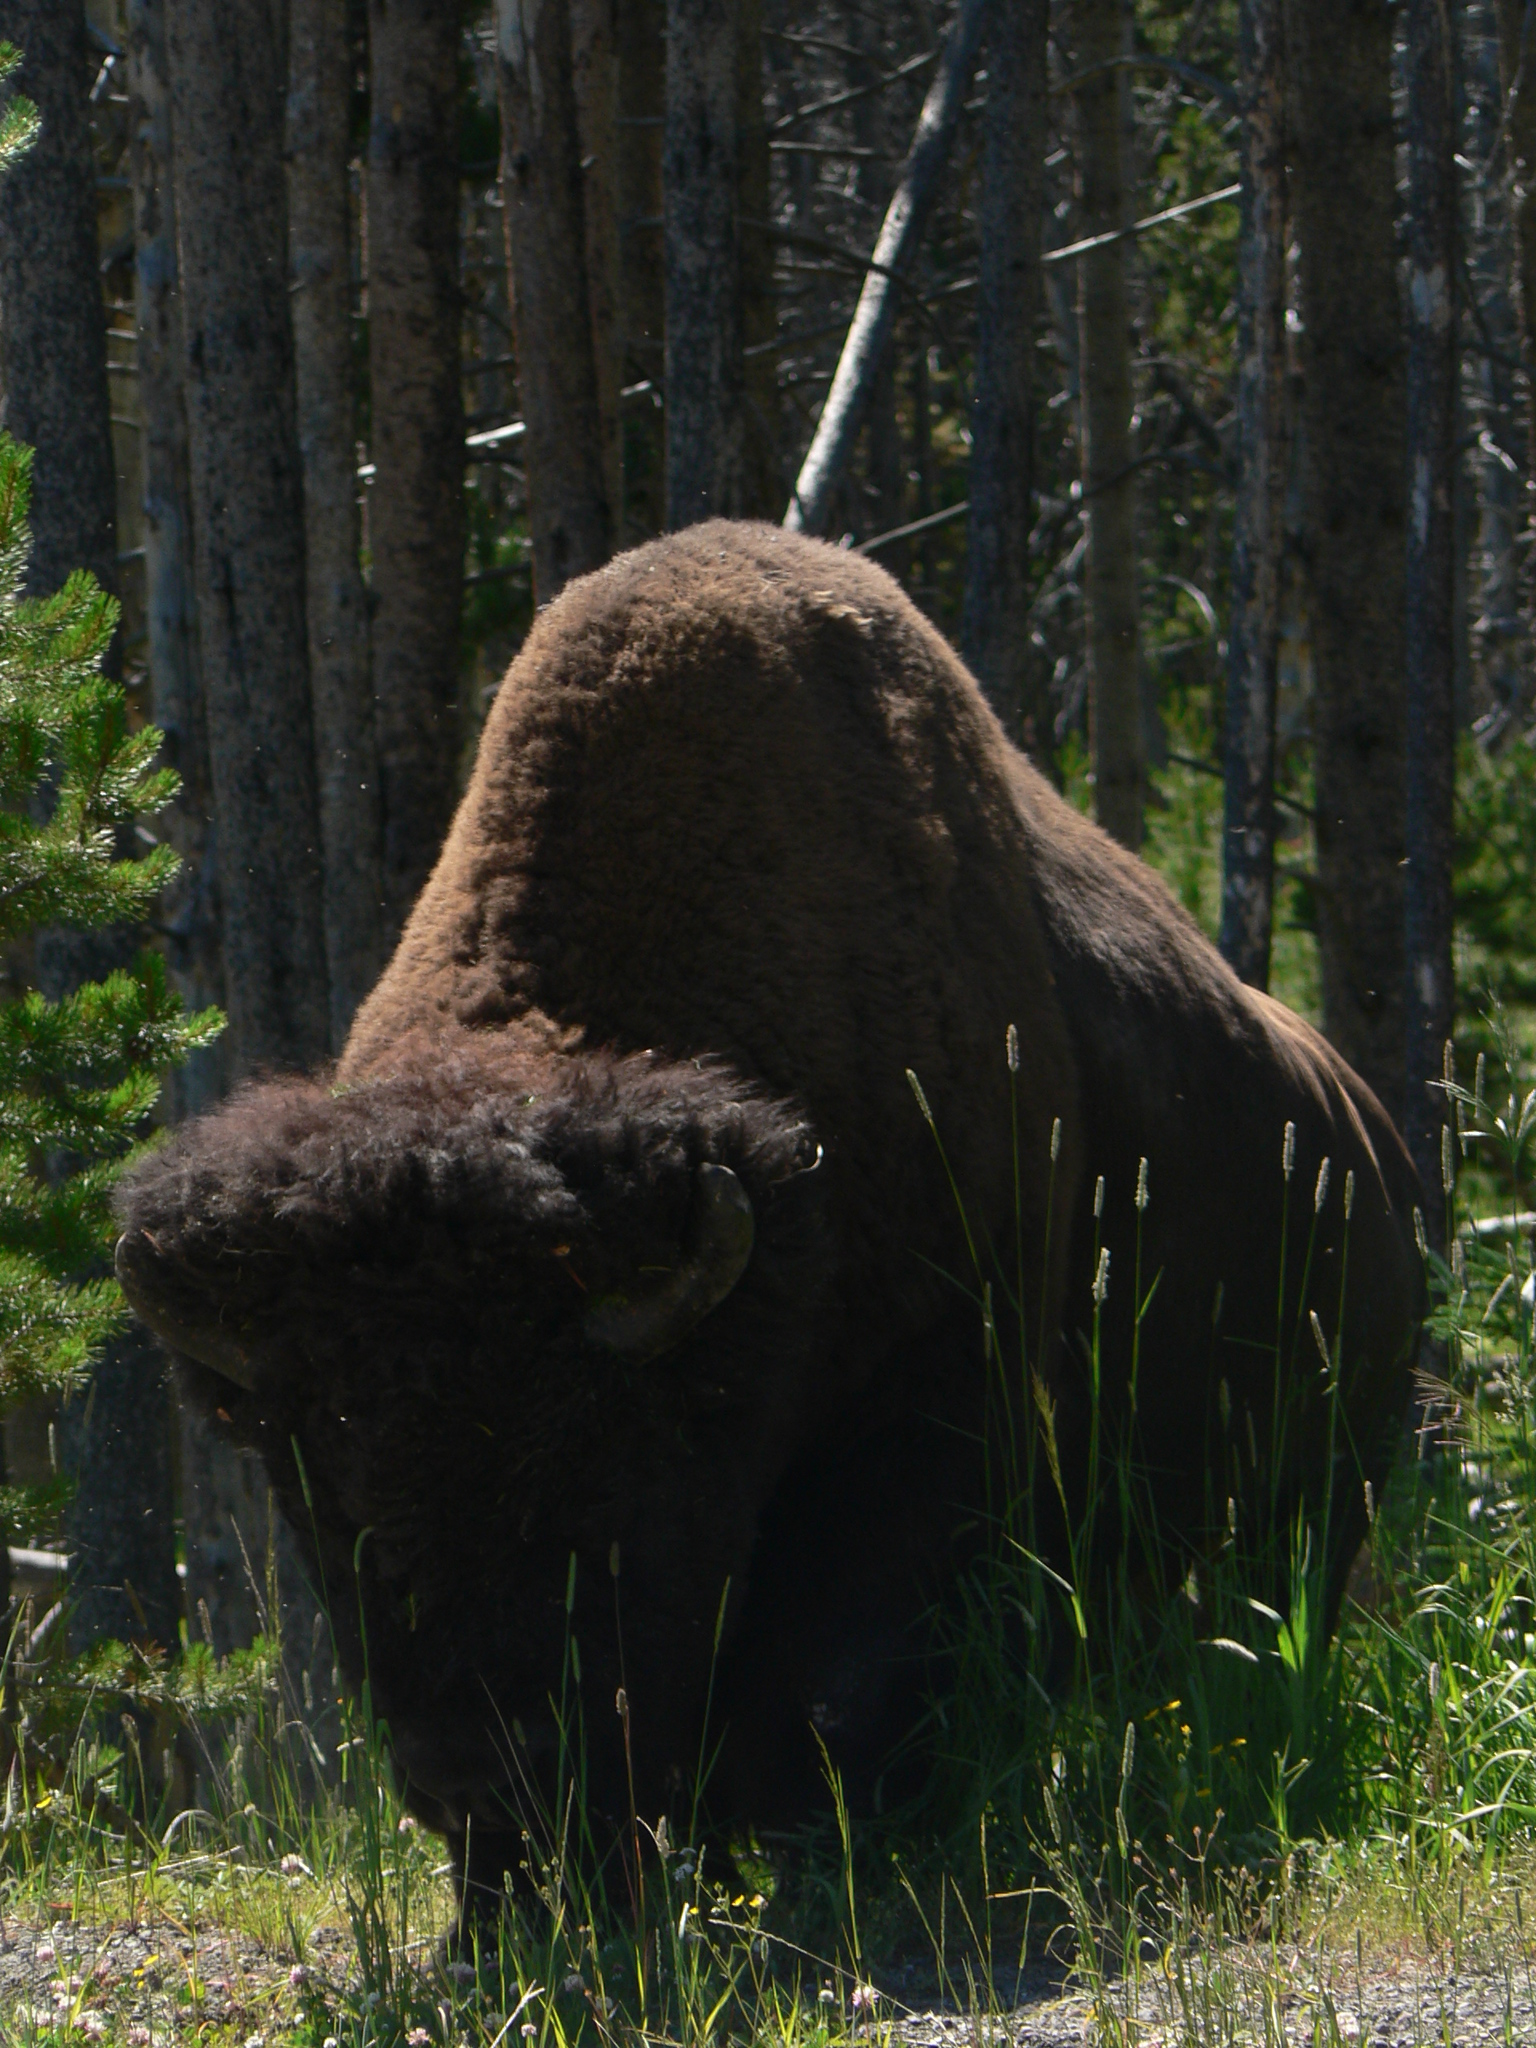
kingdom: Animalia
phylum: Chordata
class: Mammalia
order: Artiodactyla
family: Bovidae
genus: Bison
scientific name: Bison bison
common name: American bison
